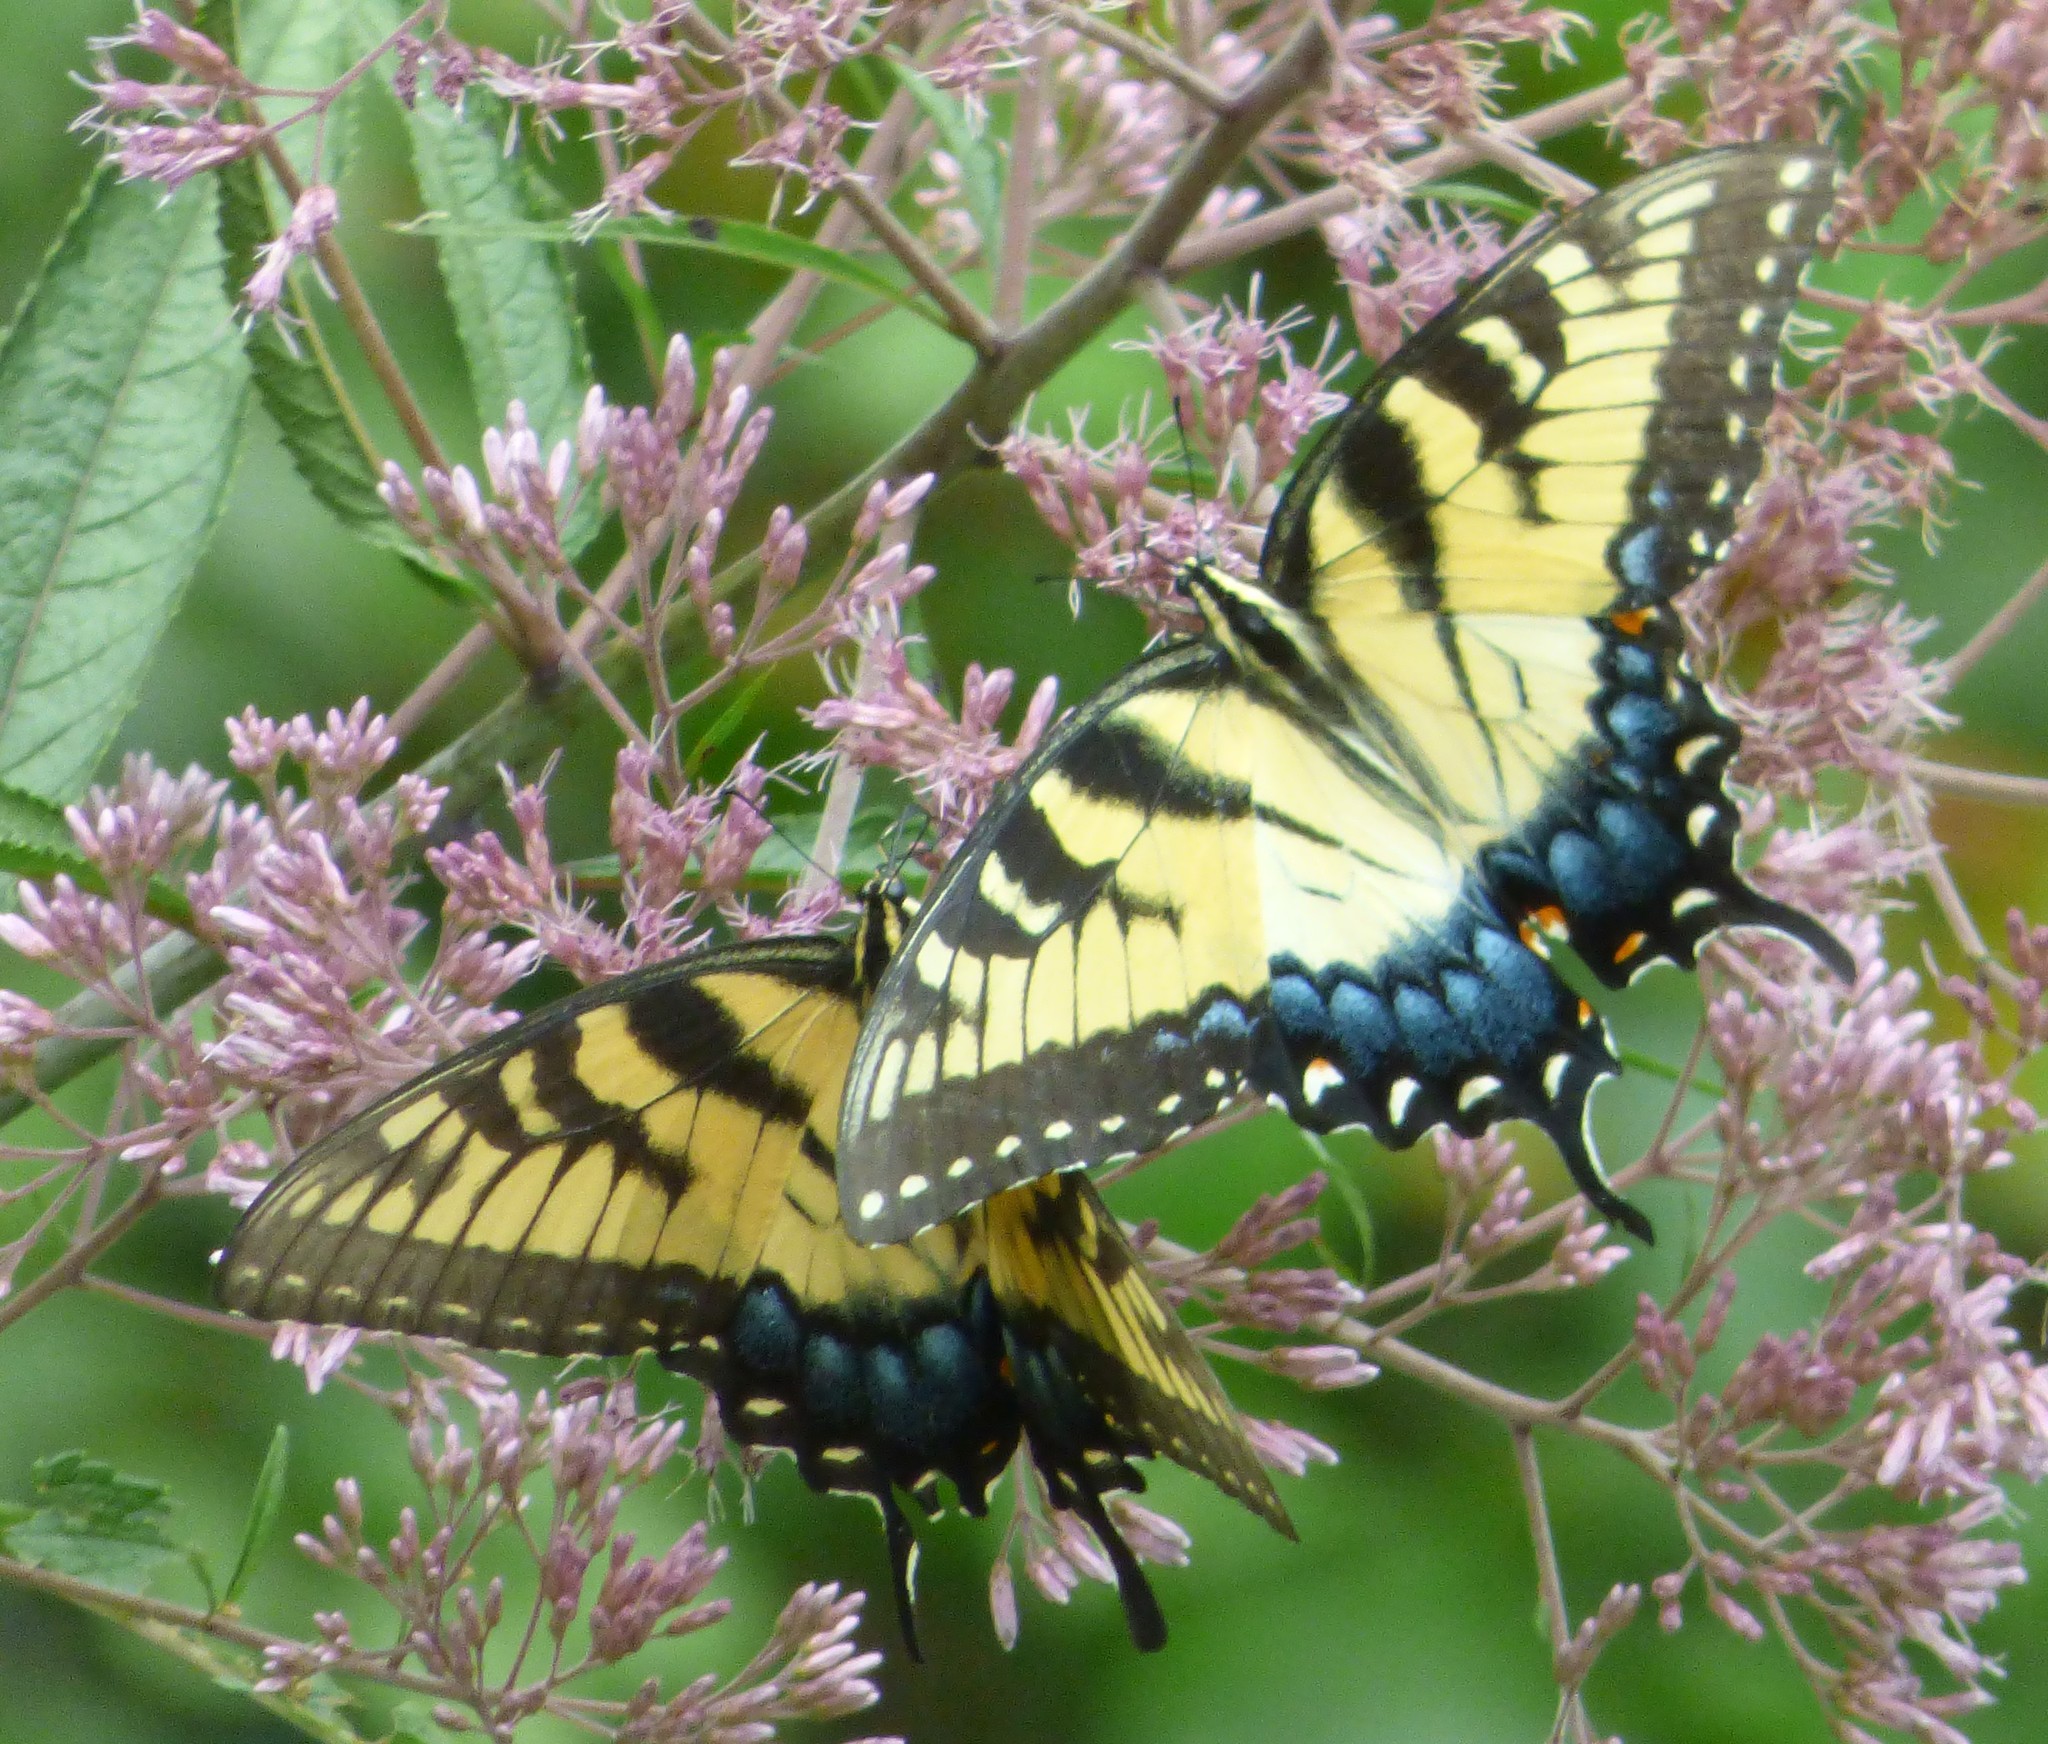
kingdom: Animalia
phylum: Arthropoda
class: Insecta
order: Lepidoptera
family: Papilionidae
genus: Papilio
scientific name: Papilio glaucus
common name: Tiger swallowtail
